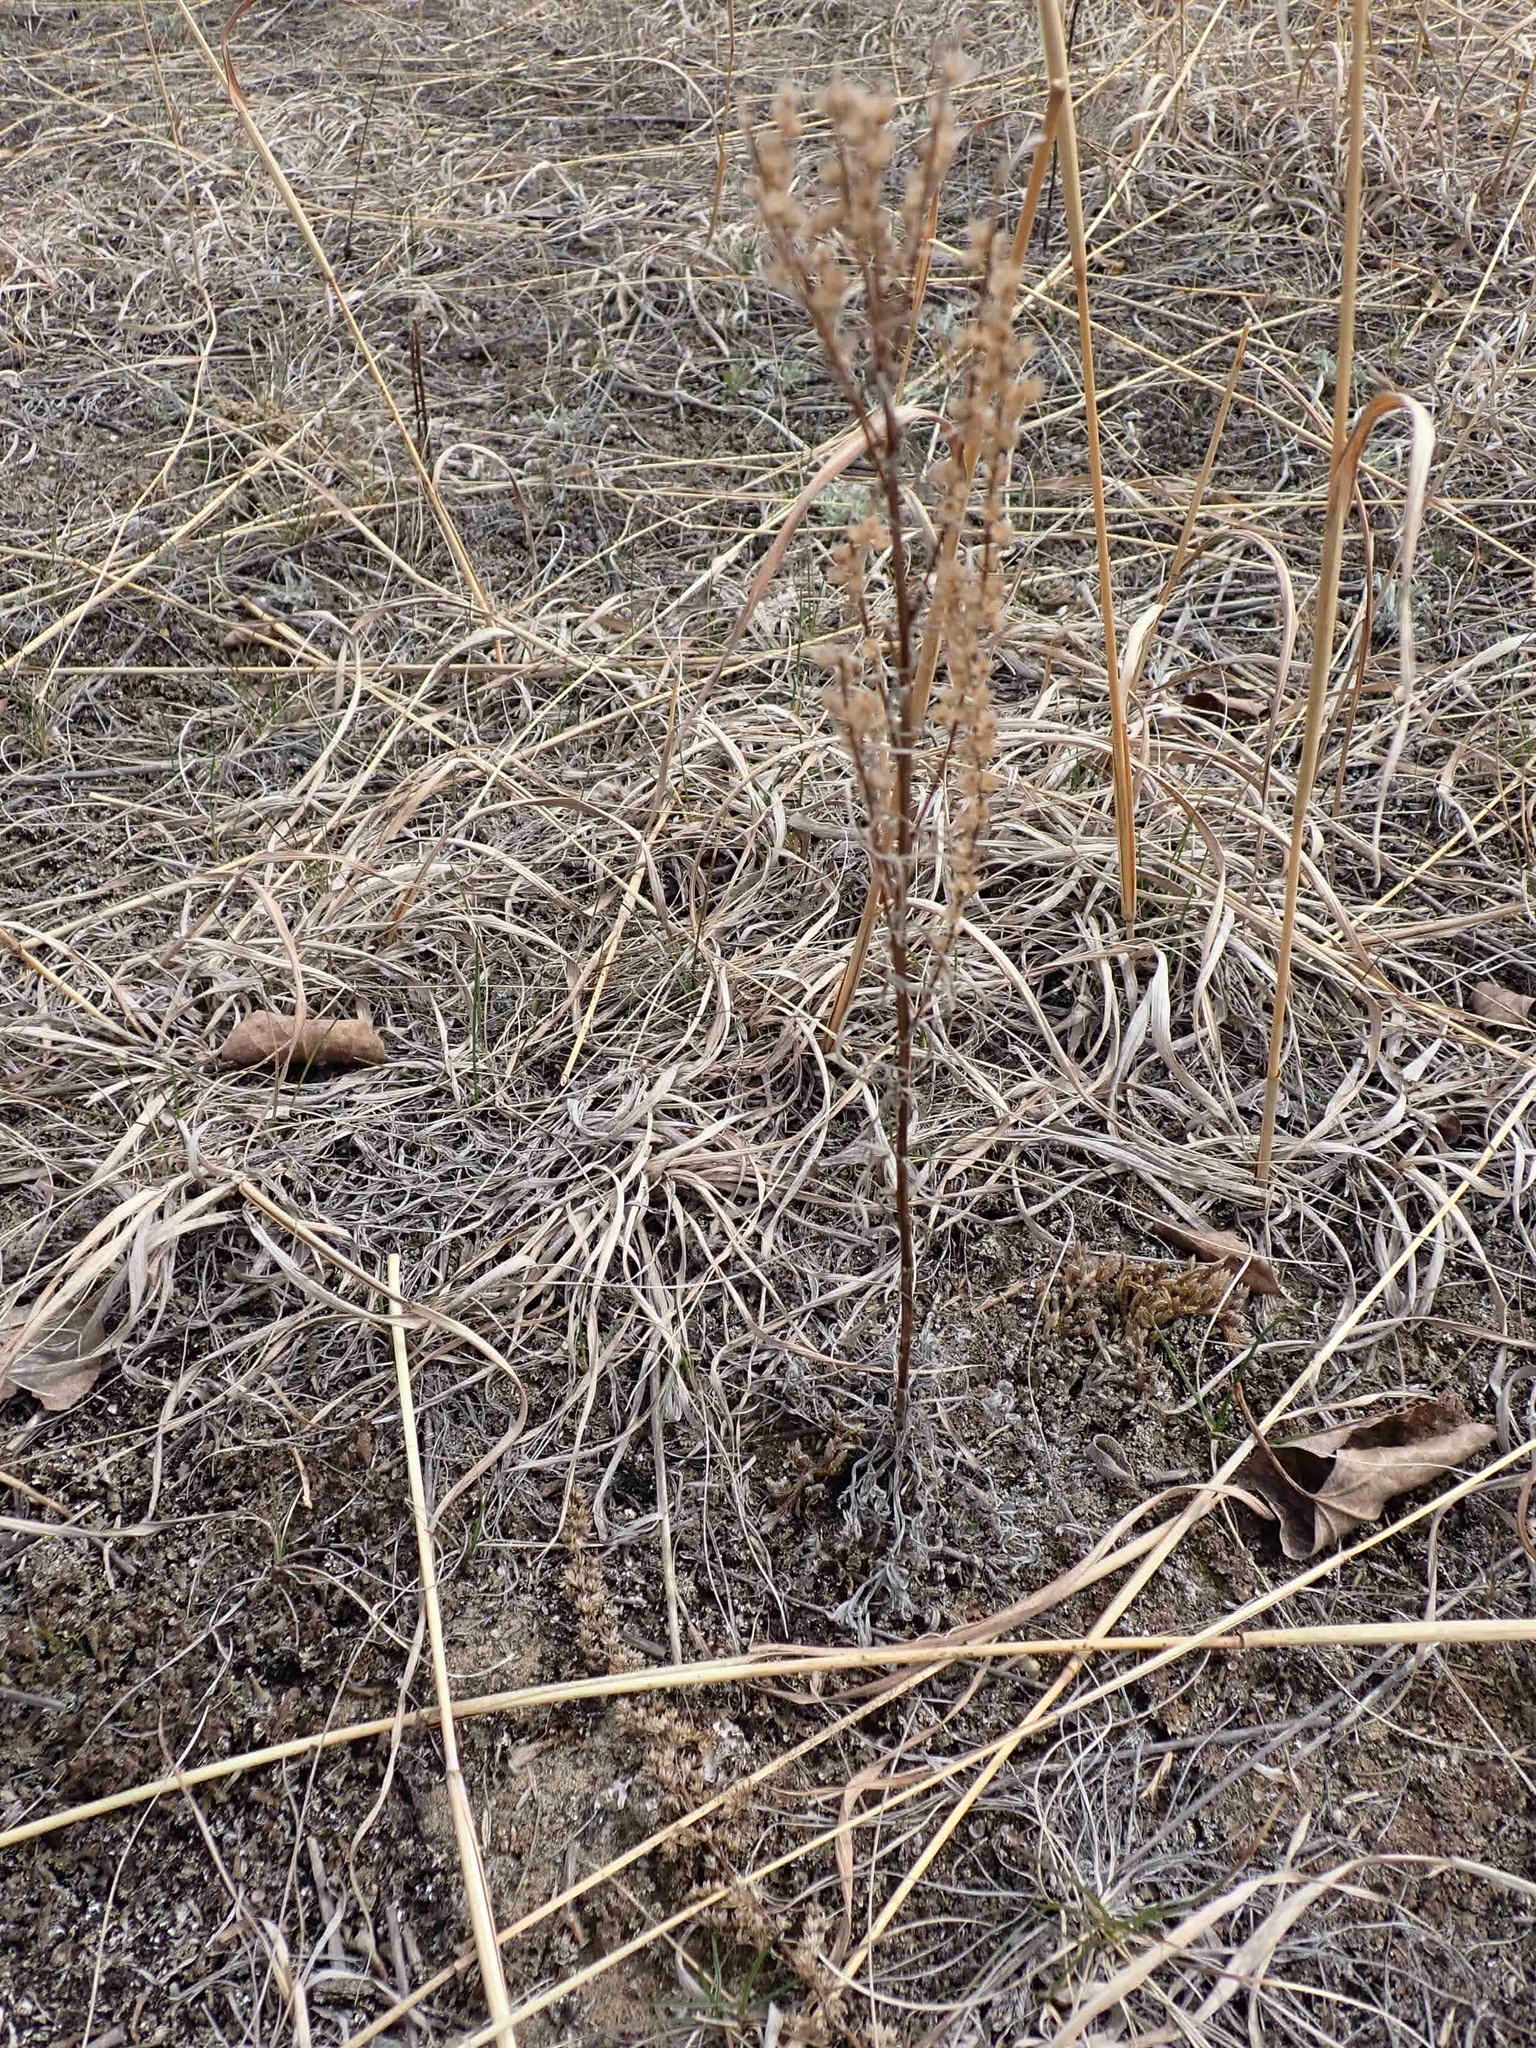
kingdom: Plantae
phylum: Tracheophyta
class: Magnoliopsida
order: Asterales
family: Asteraceae
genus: Artemisia
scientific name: Artemisia campestris
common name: Field wormwood
